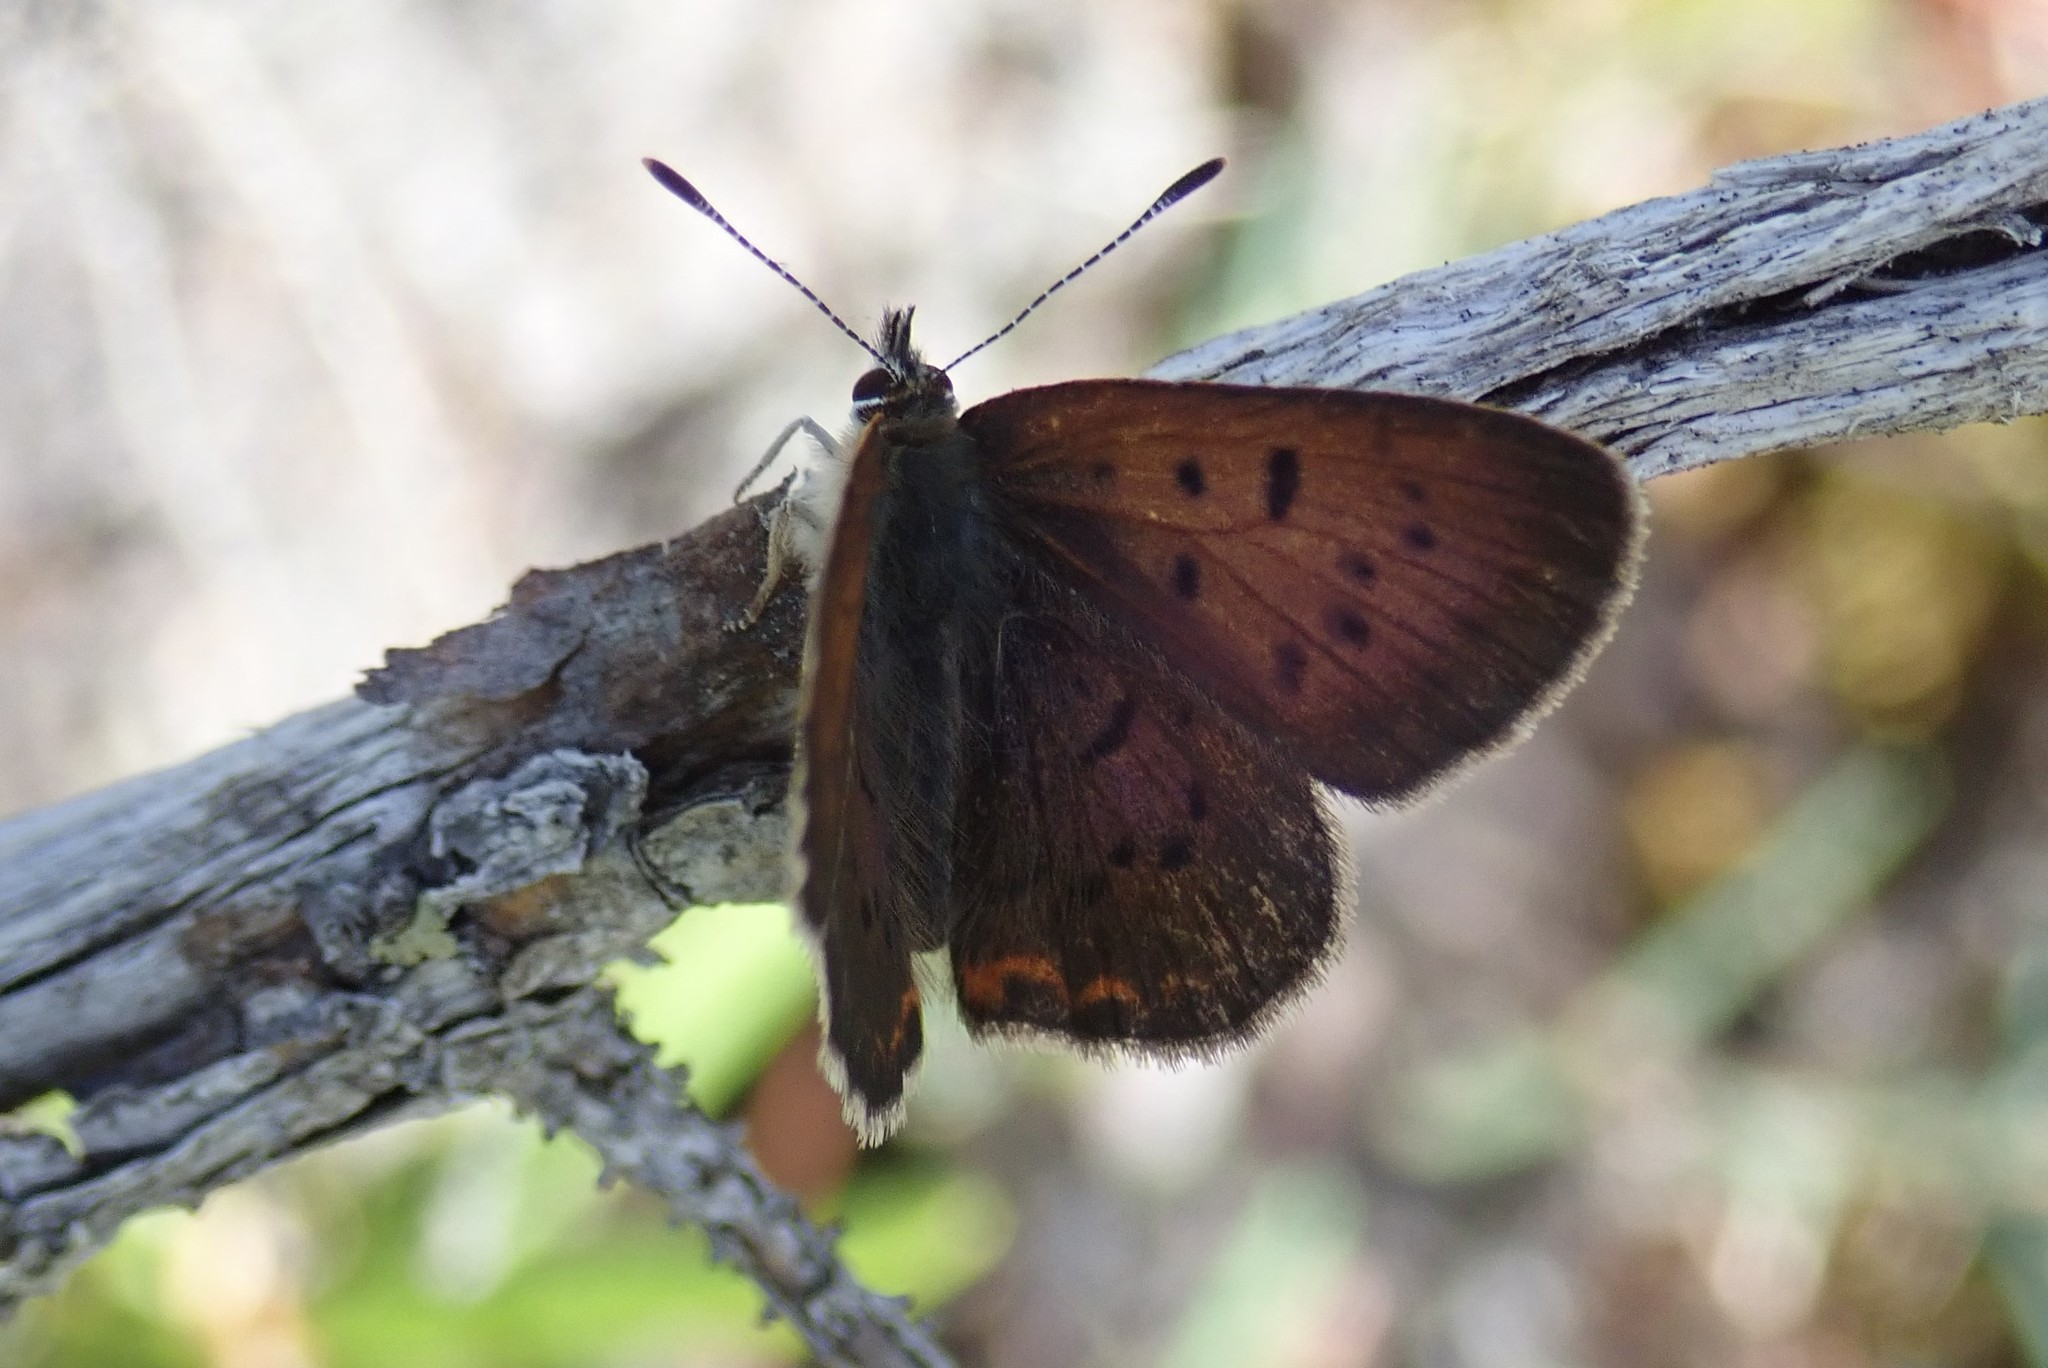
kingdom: Animalia
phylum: Arthropoda
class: Insecta
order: Lepidoptera
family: Lycaenidae
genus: Tharsalea
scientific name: Tharsalea dorcas
